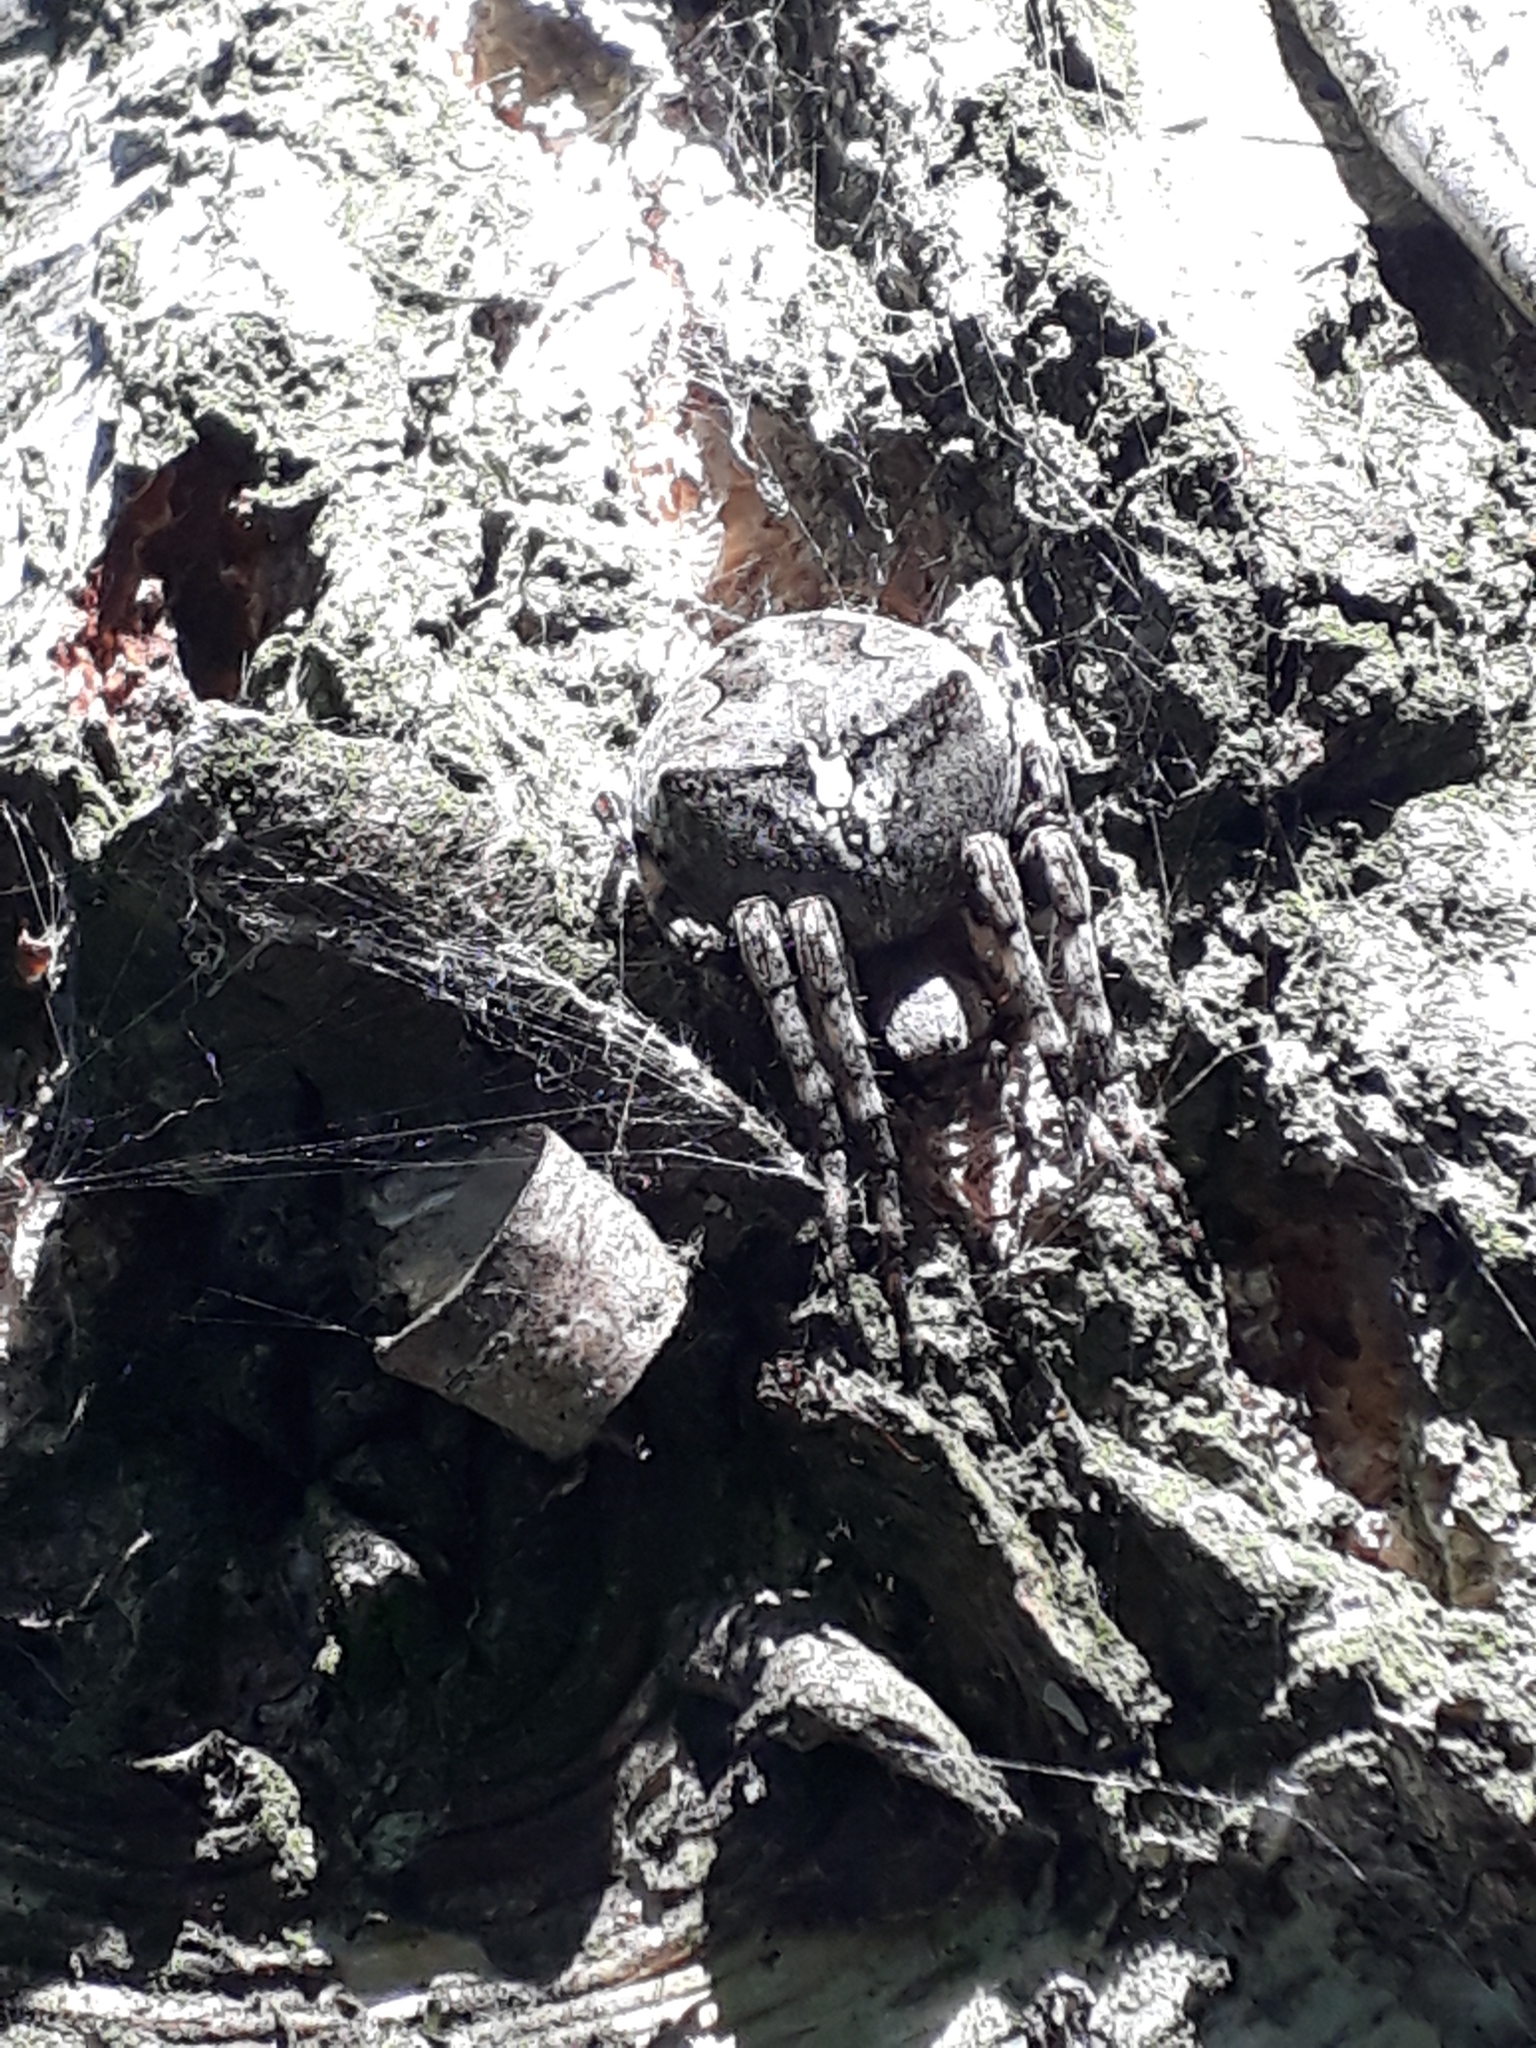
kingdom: Animalia
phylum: Arthropoda
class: Arachnida
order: Araneae
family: Araneidae
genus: Araneus
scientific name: Araneus angulatus
